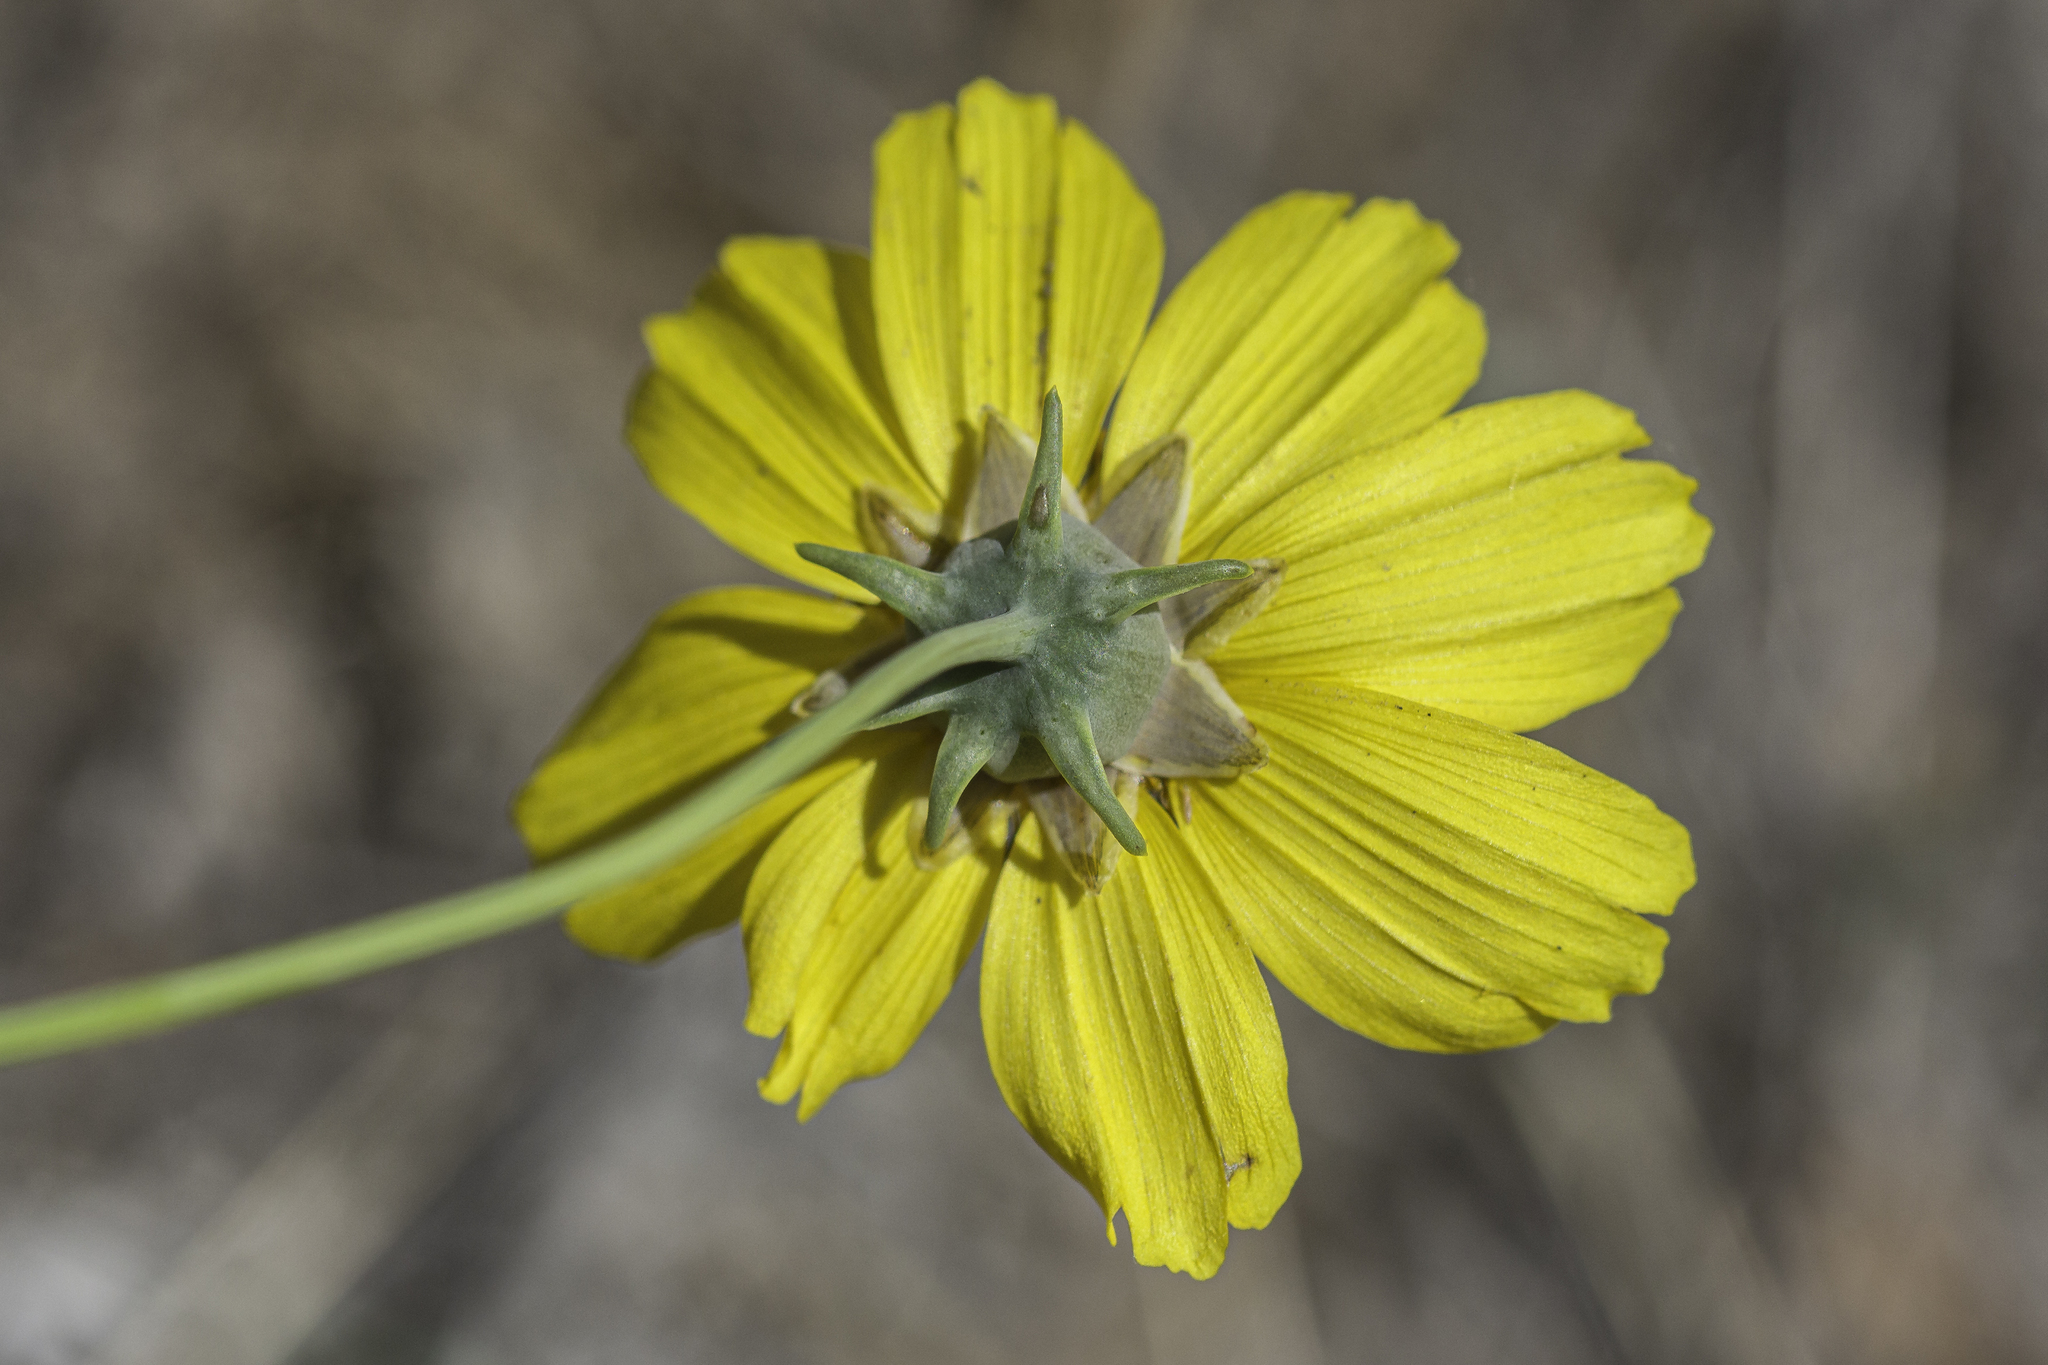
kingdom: Plantae
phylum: Tracheophyta
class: Magnoliopsida
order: Asterales
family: Asteraceae
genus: Thelesperma
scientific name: Thelesperma filifolium
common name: Stiff greenthread
